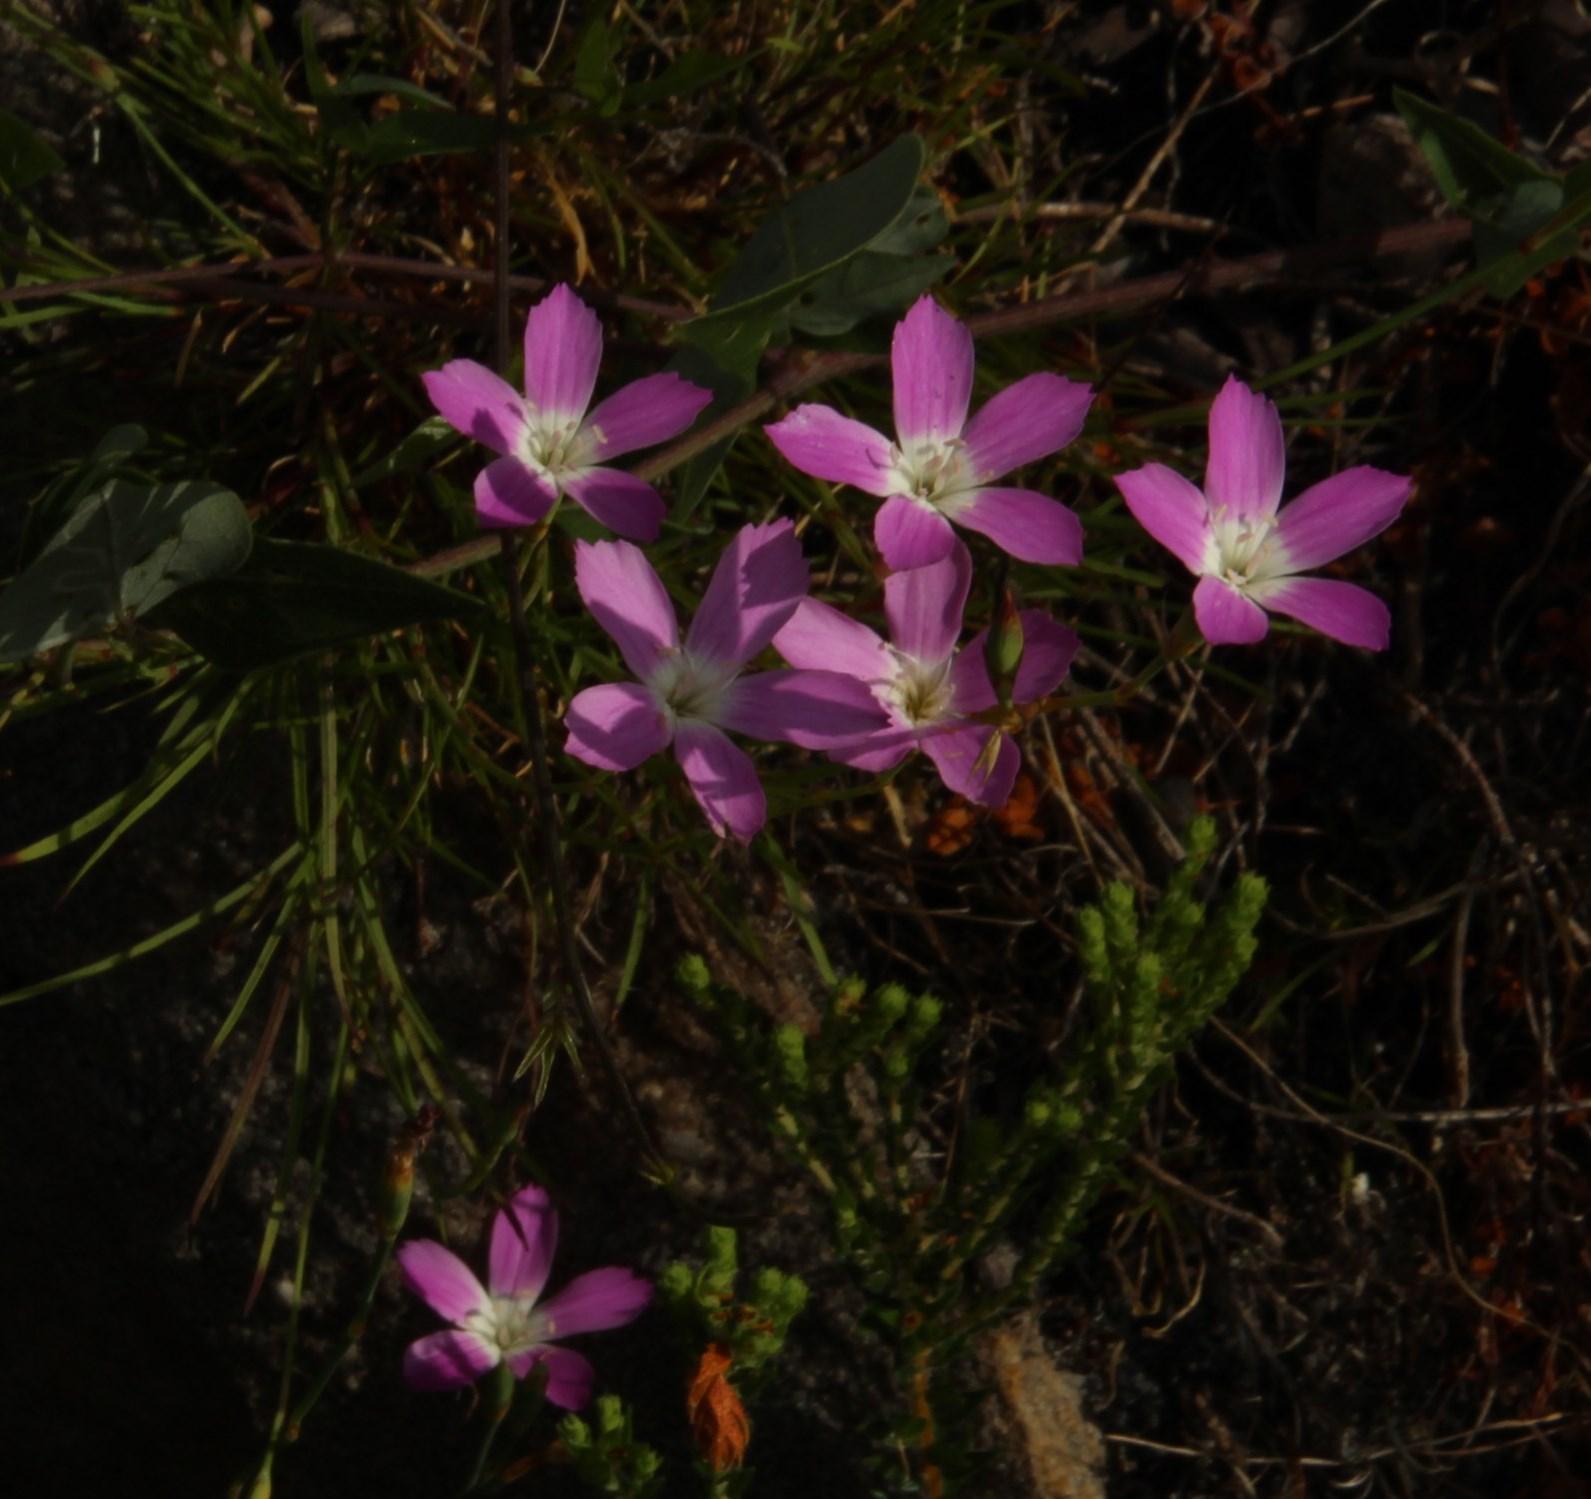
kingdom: Plantae
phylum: Tracheophyta
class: Magnoliopsida
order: Caryophyllales
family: Caryophyllaceae
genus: Dianthus
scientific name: Dianthus albens
